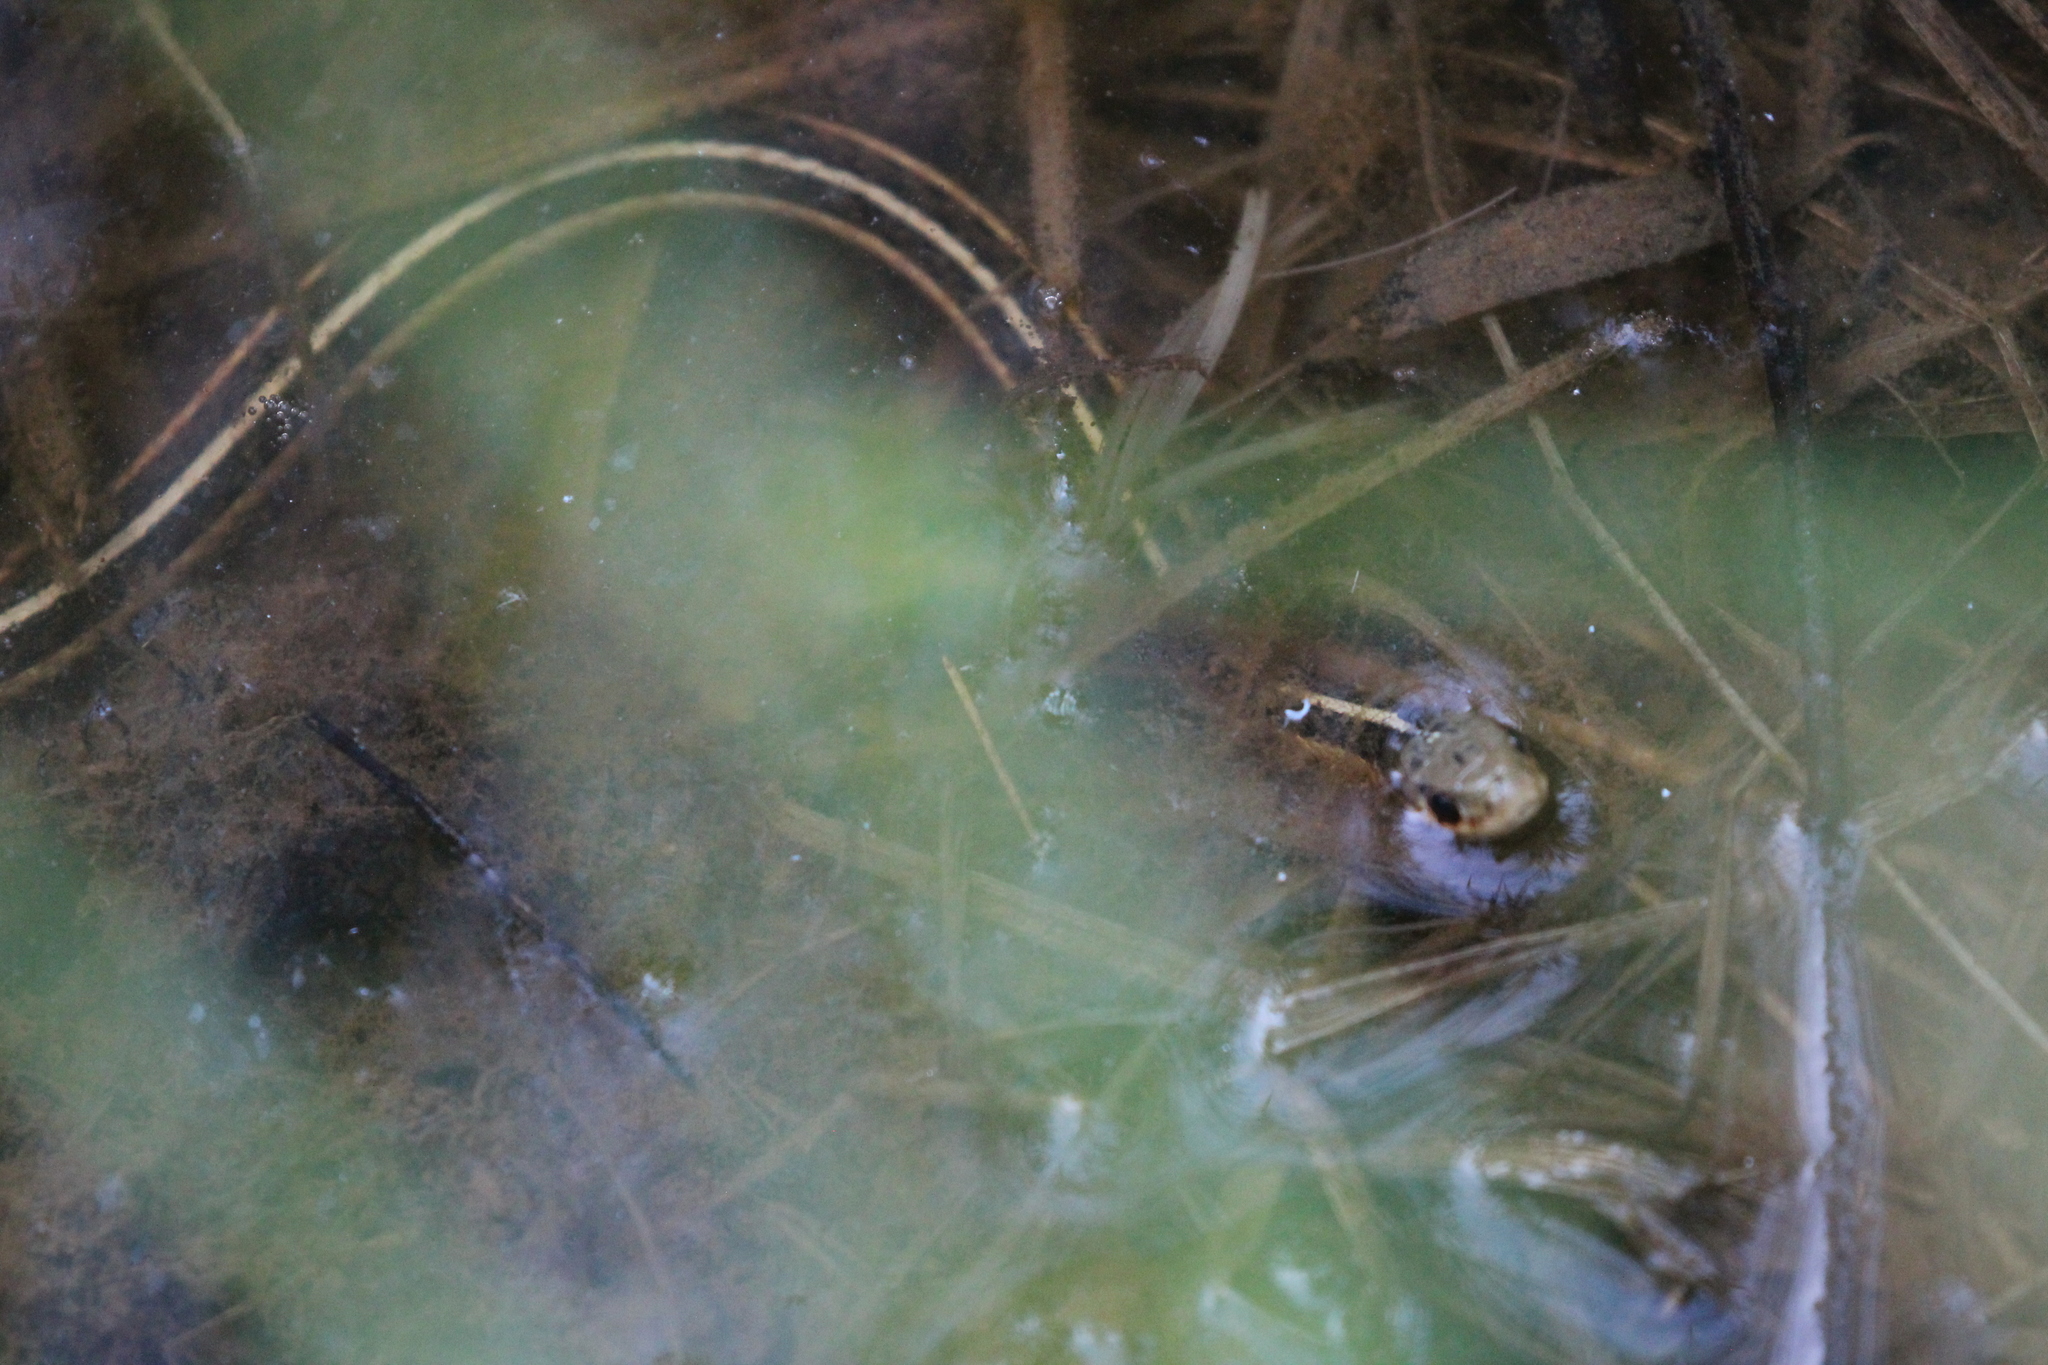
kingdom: Animalia
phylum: Chordata
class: Squamata
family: Colubridae
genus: Thamnophis
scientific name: Thamnophis sirtalis
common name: Common garter snake
